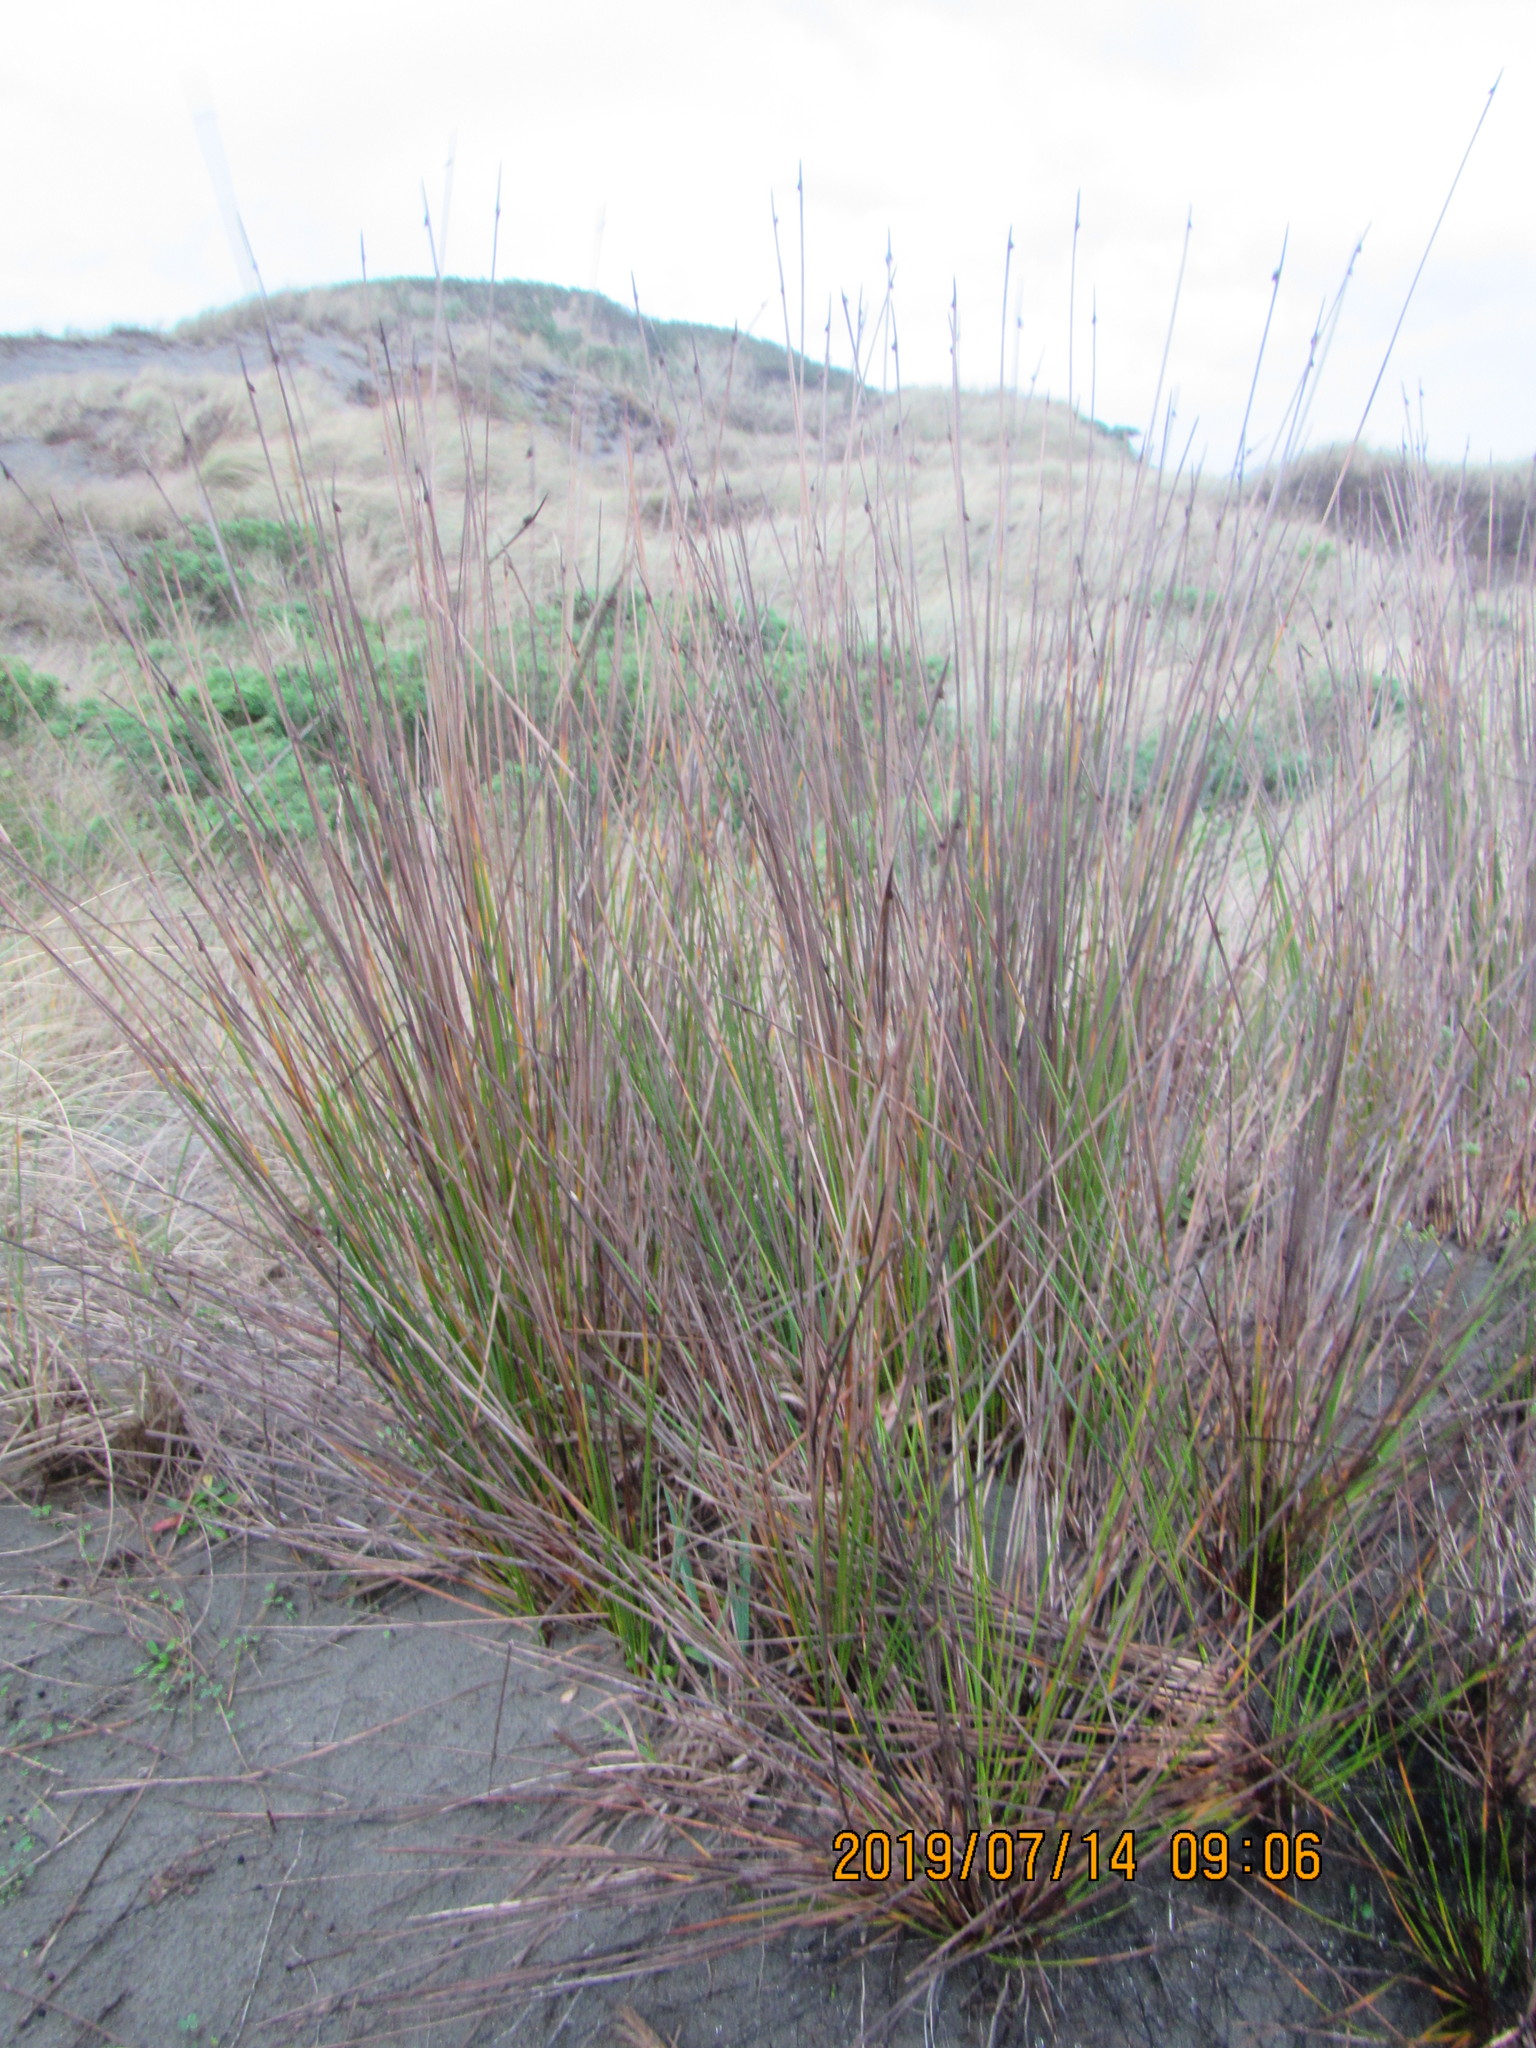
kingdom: Plantae
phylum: Tracheophyta
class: Liliopsida
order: Poales
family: Cyperaceae
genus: Ficinia
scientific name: Ficinia nodosa
